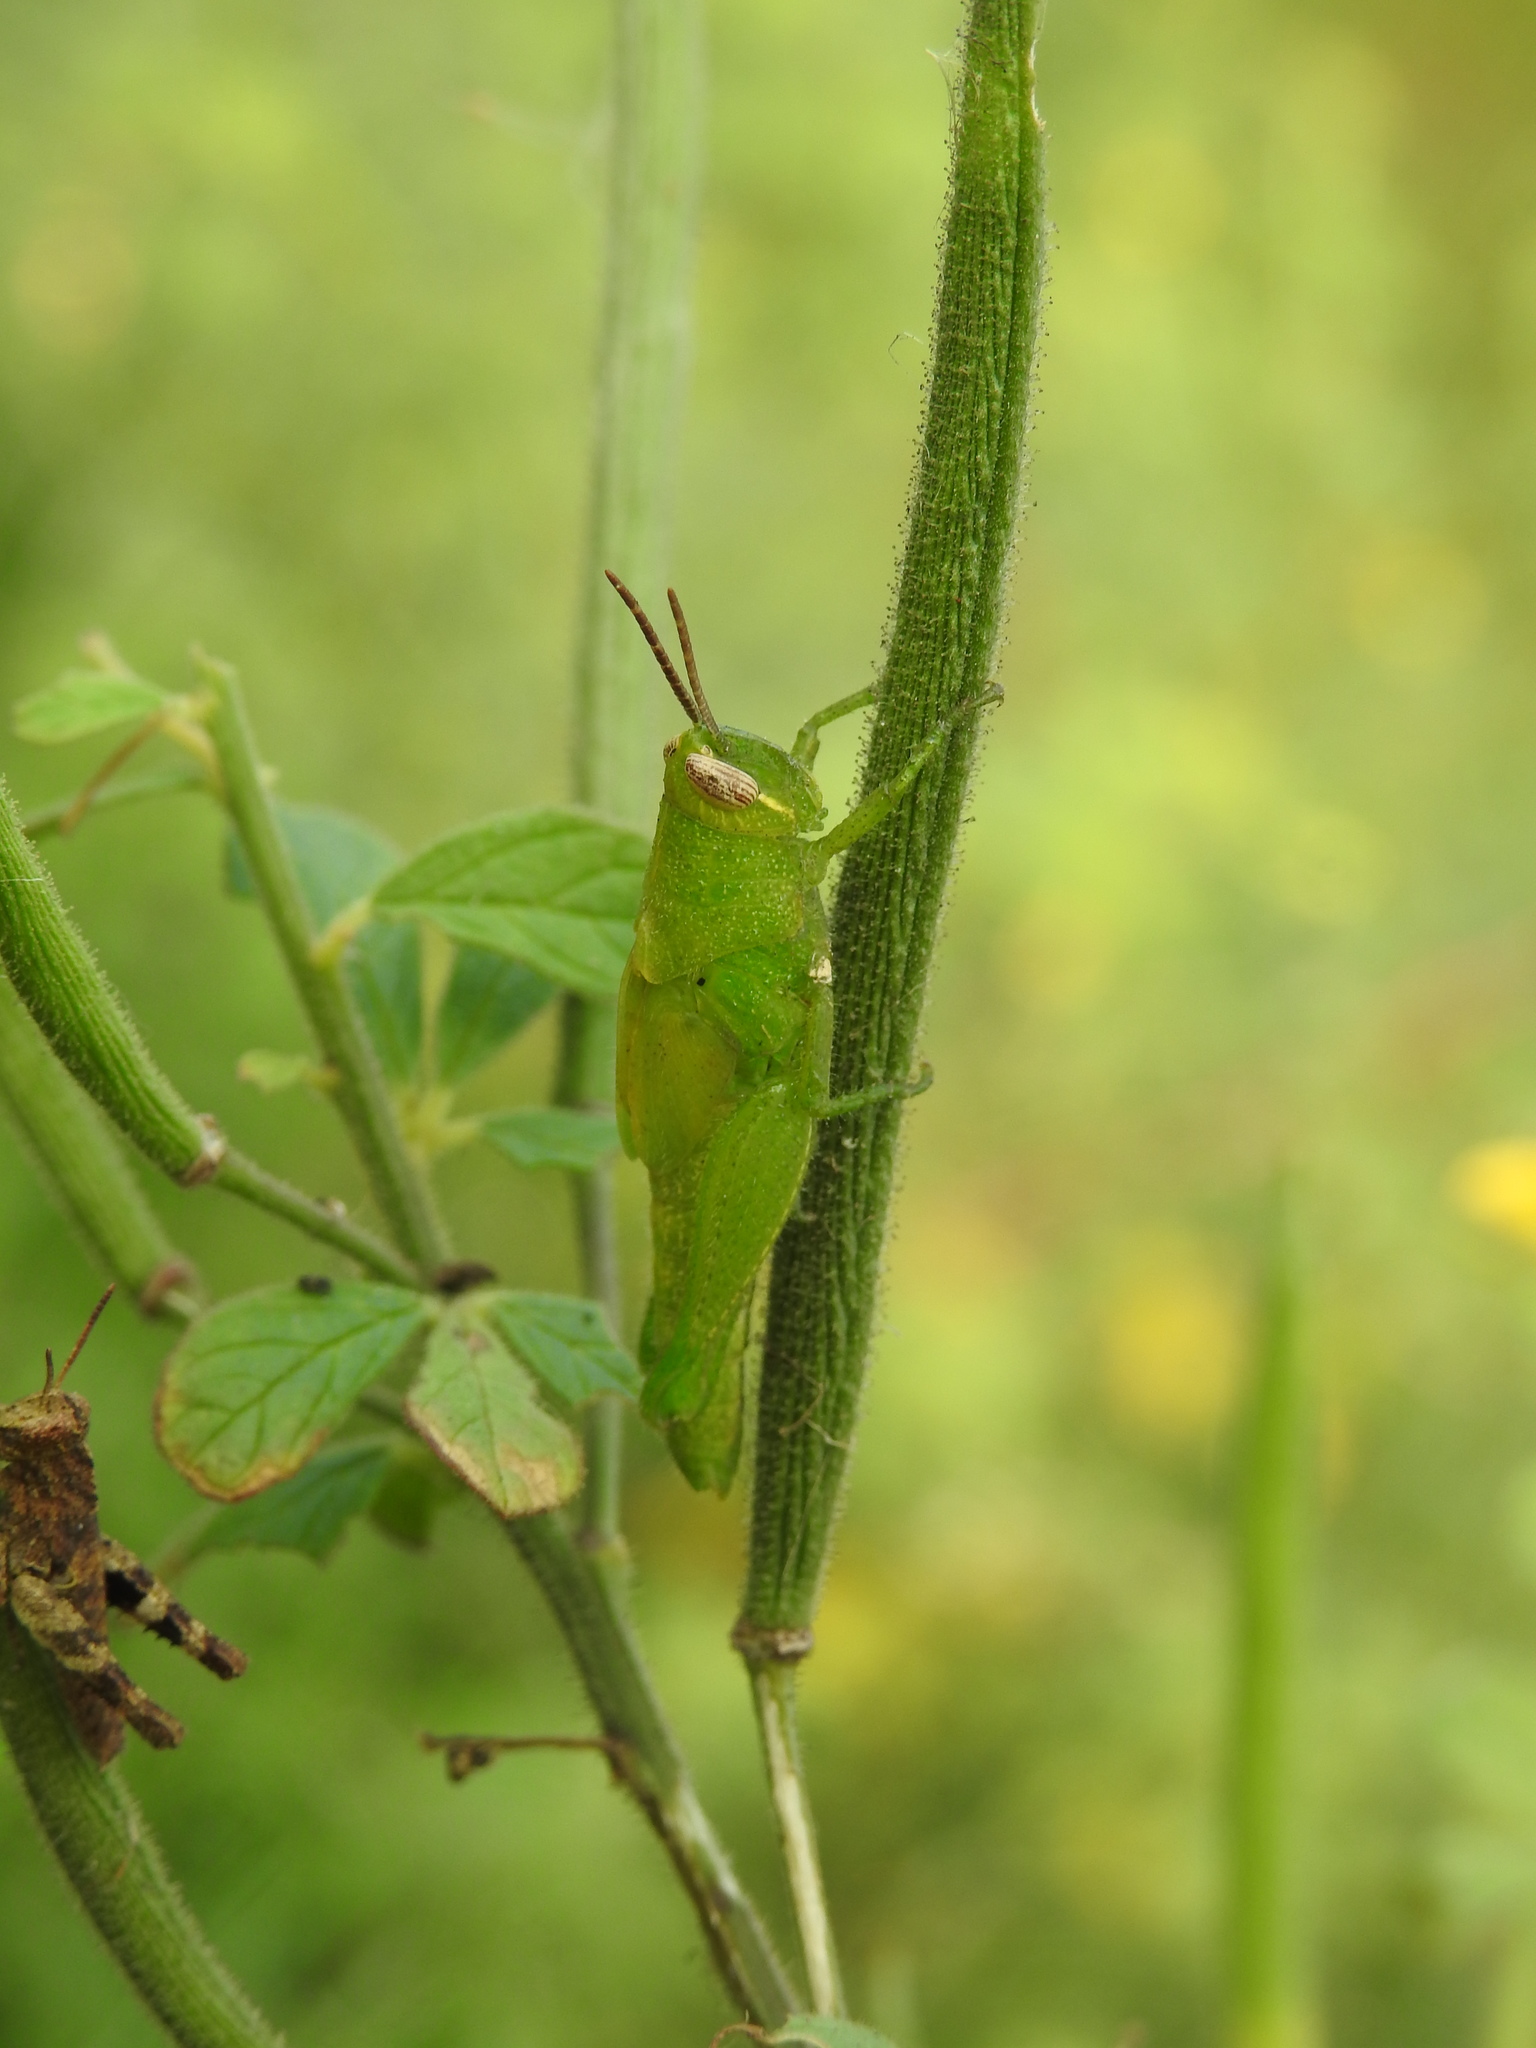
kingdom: Plantae
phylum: Tracheophyta
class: Magnoliopsida
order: Brassicales
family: Cleomaceae
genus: Arivela
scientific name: Arivela viscosa
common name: Asian spiderflower
